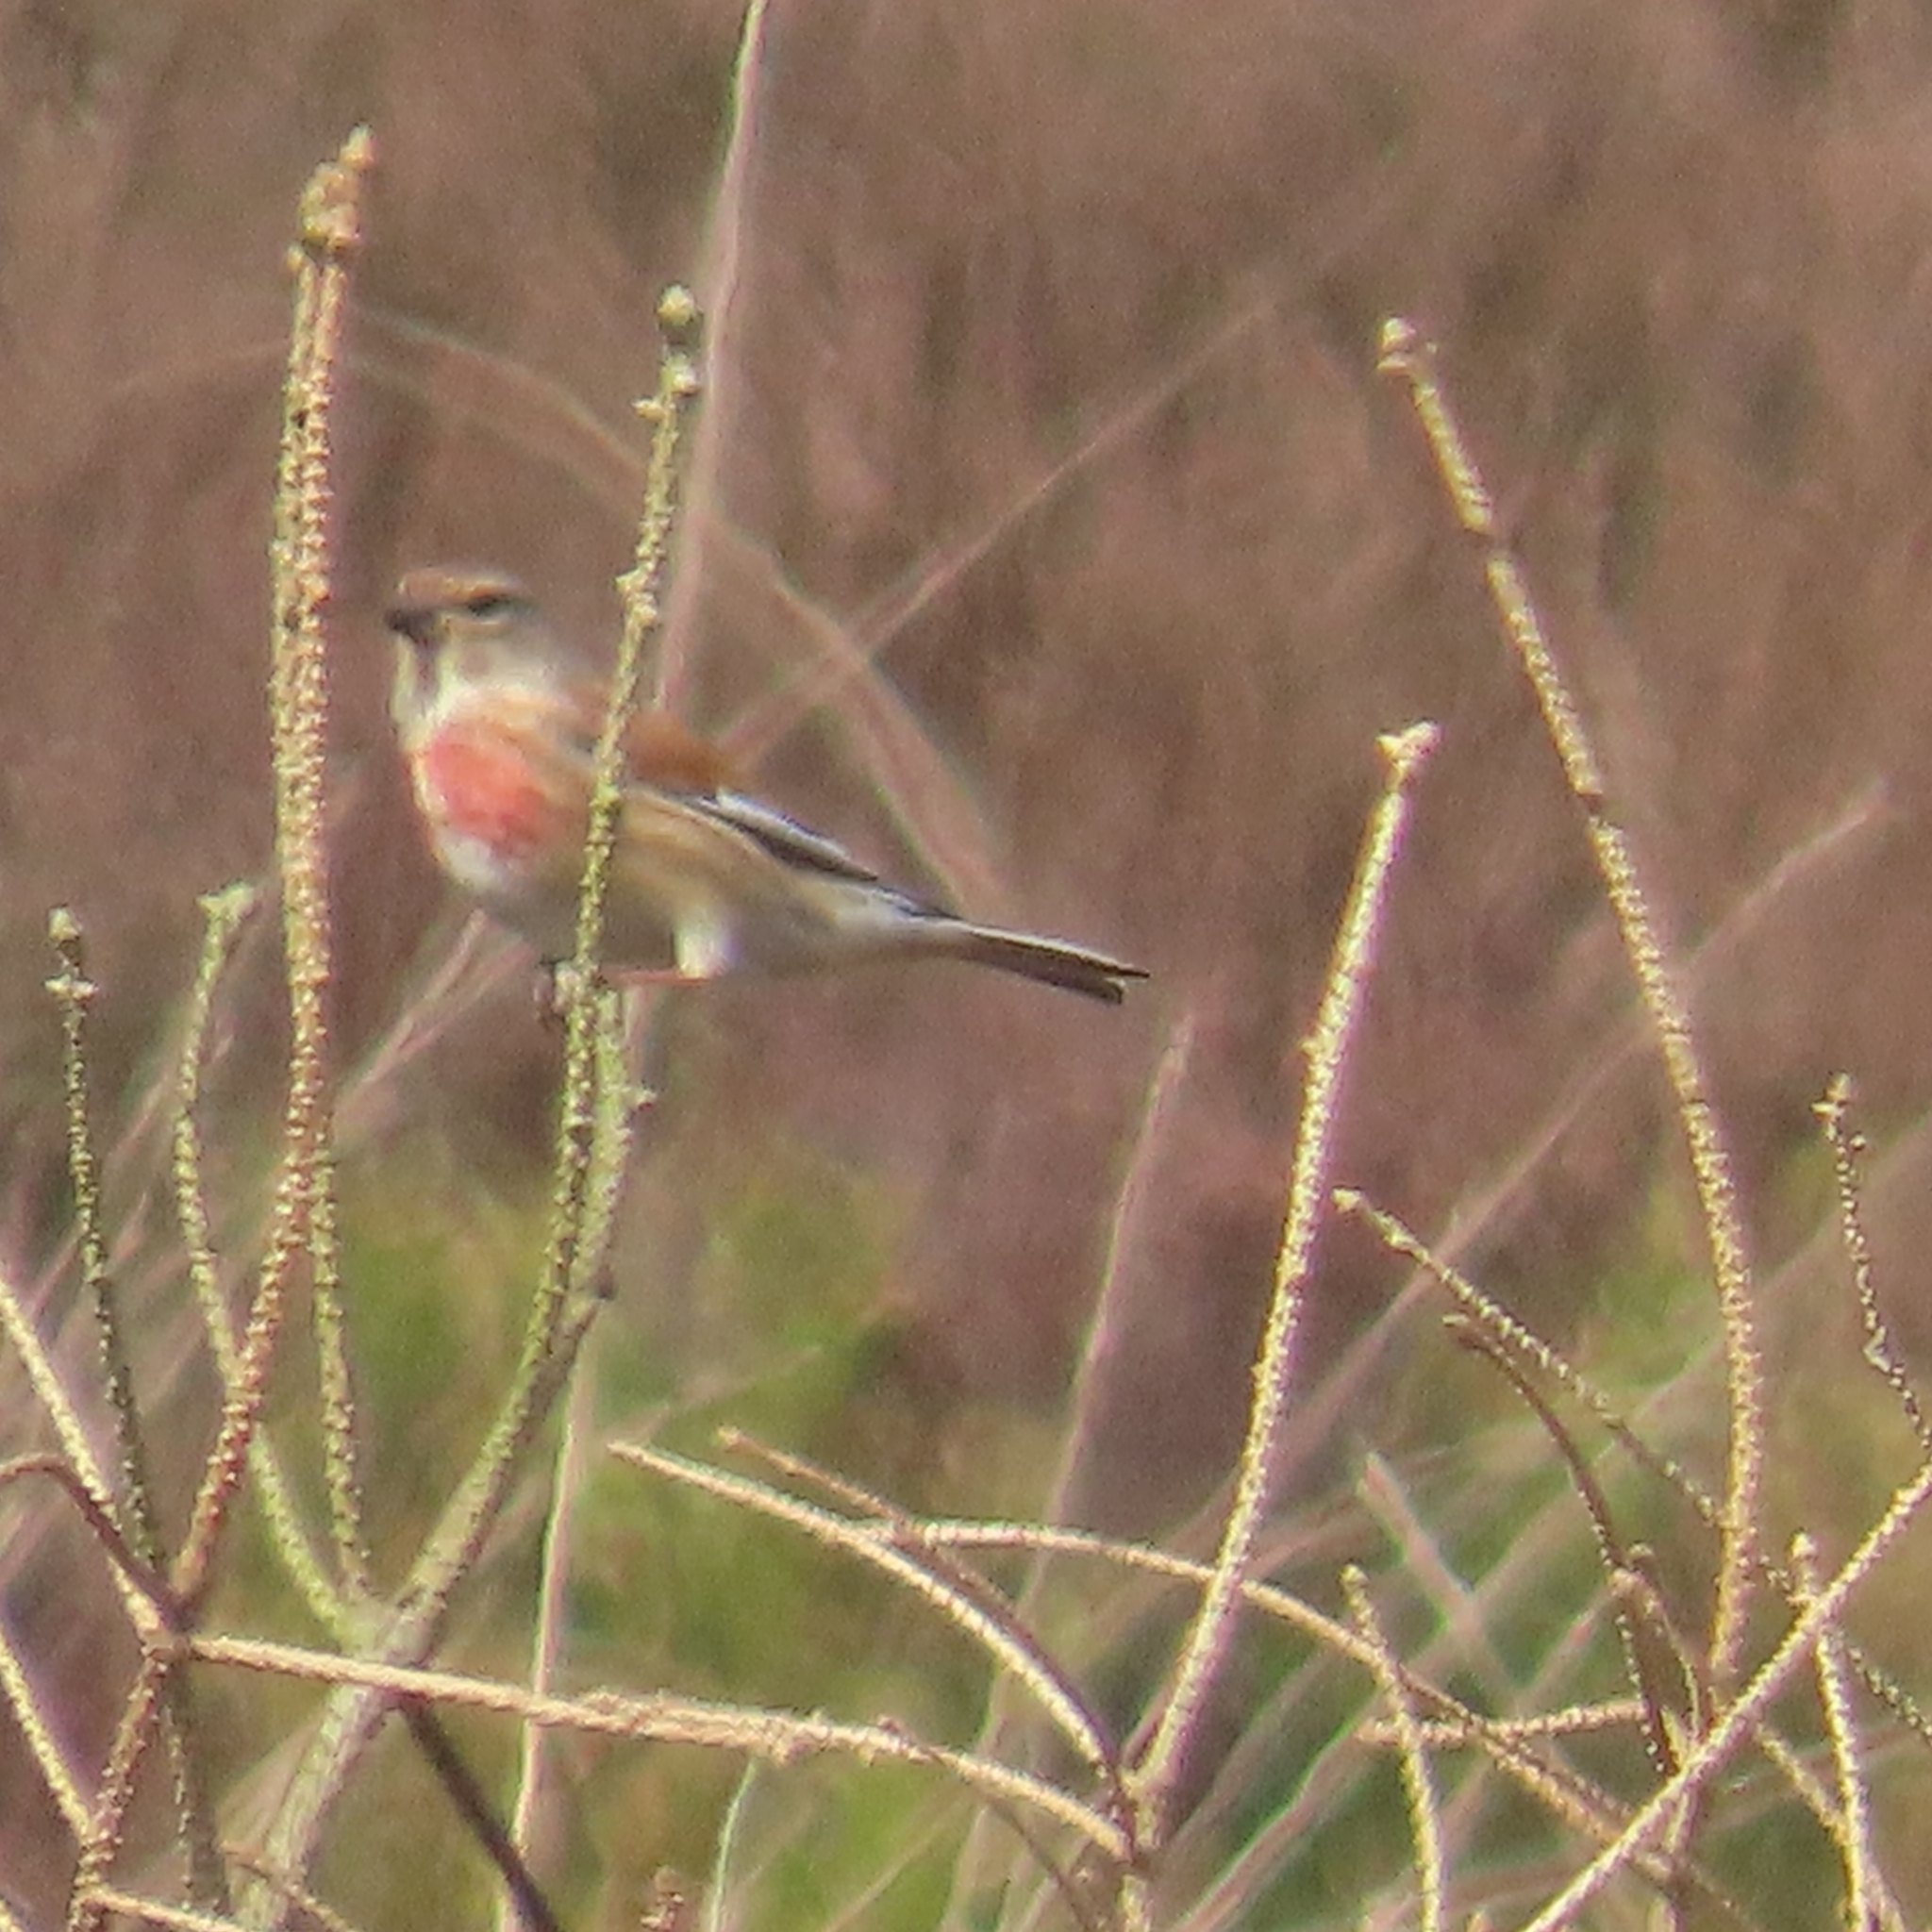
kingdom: Animalia
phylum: Chordata
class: Aves
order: Passeriformes
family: Fringillidae
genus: Linaria
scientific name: Linaria cannabina
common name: Common linnet
